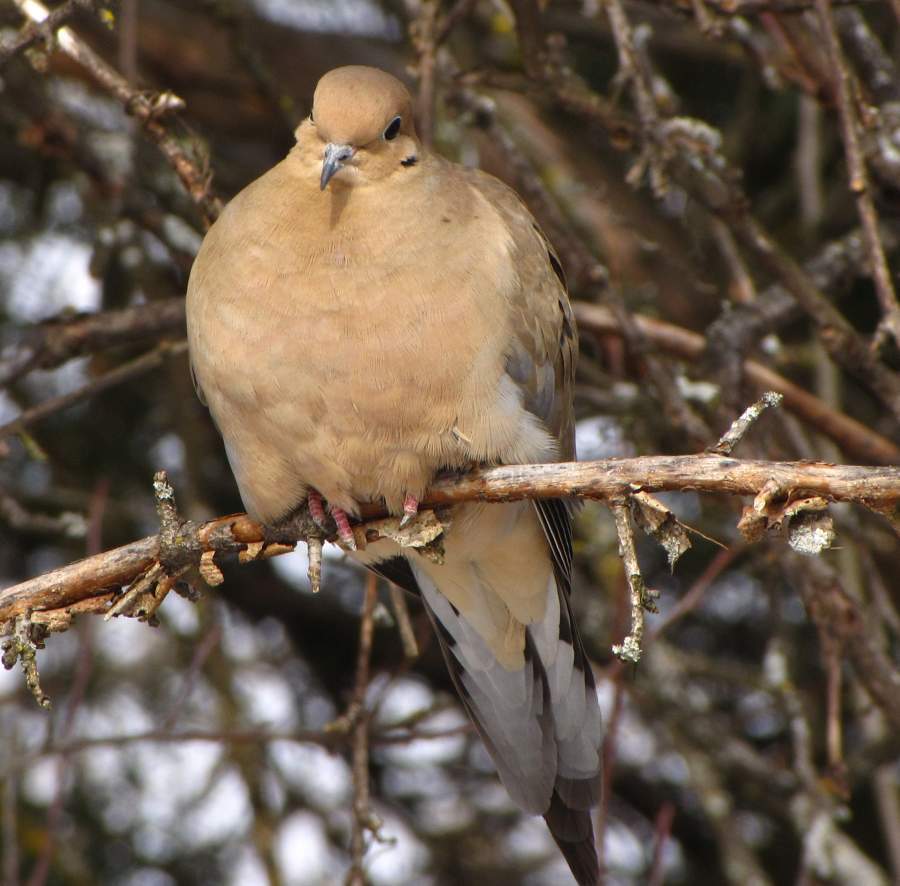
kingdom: Animalia
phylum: Chordata
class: Aves
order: Columbiformes
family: Columbidae
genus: Zenaida
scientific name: Zenaida macroura
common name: Mourning dove
